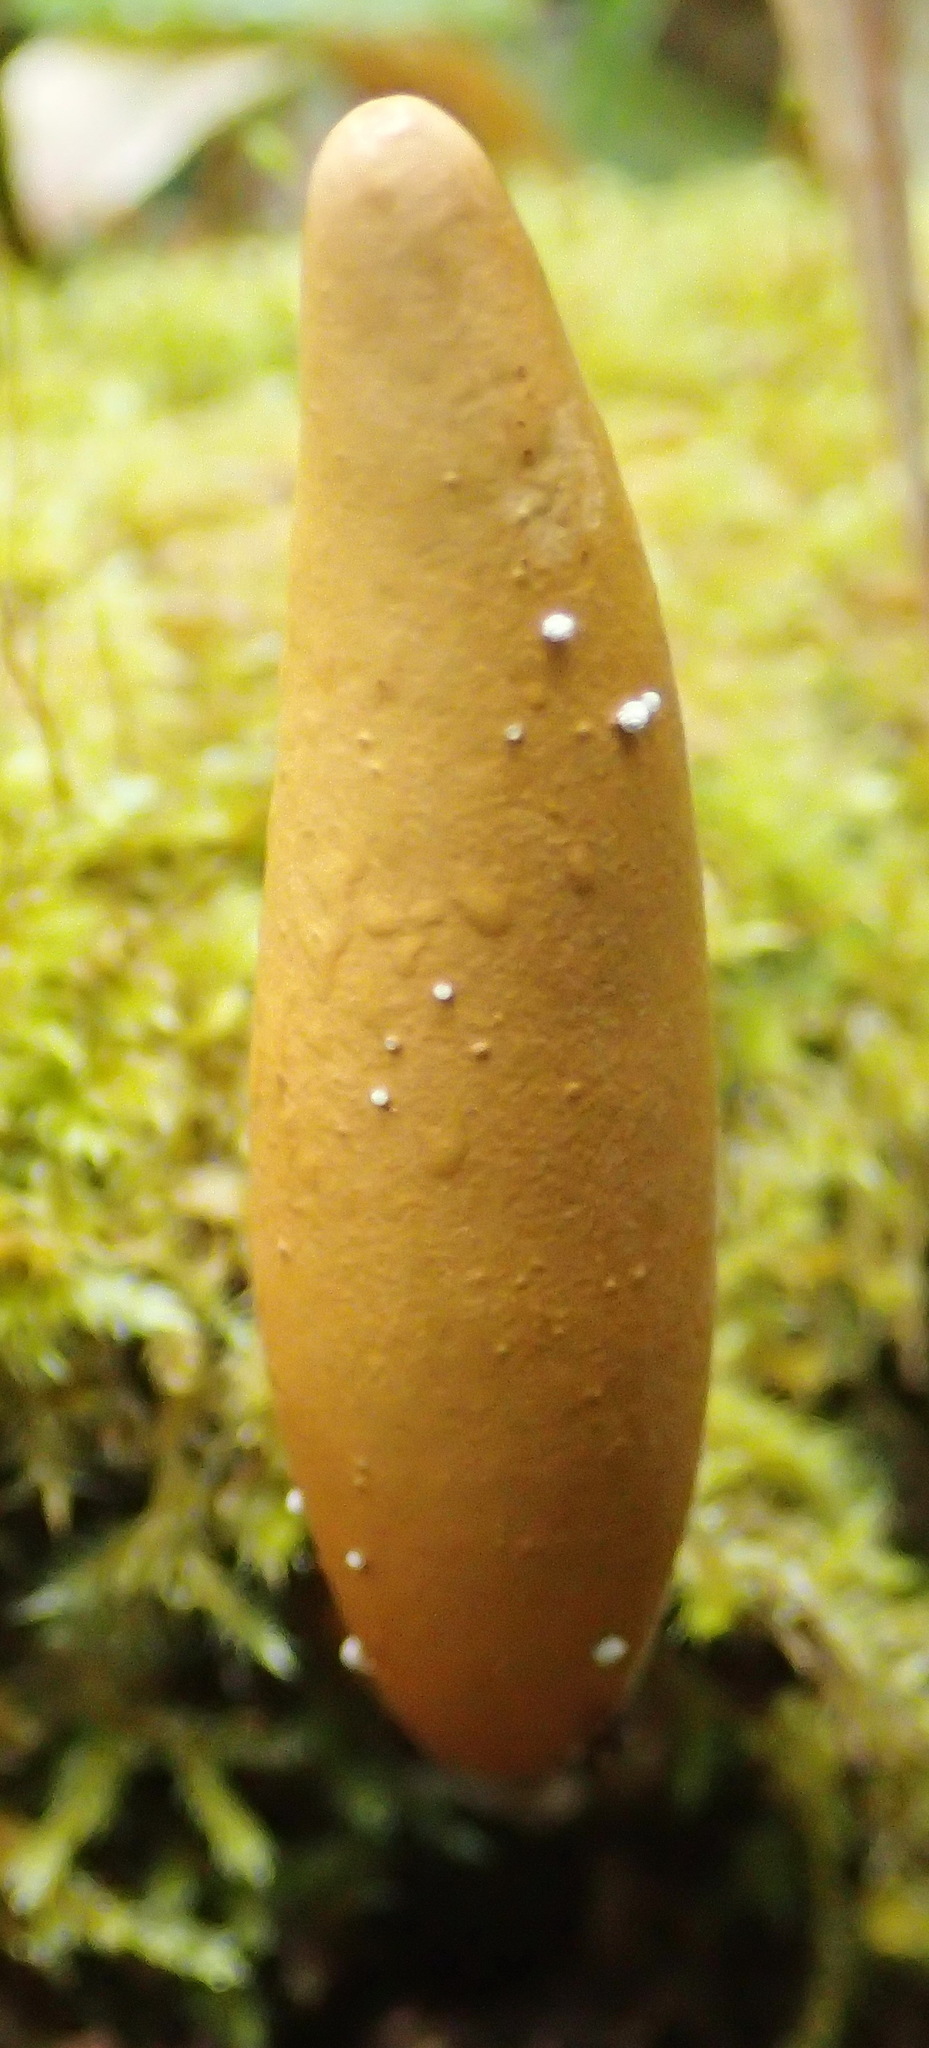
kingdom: Fungi
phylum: Ascomycota
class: Sordariomycetes
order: Xylariales
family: Xylariaceae
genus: Xylaria
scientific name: Xylaria telfairii
